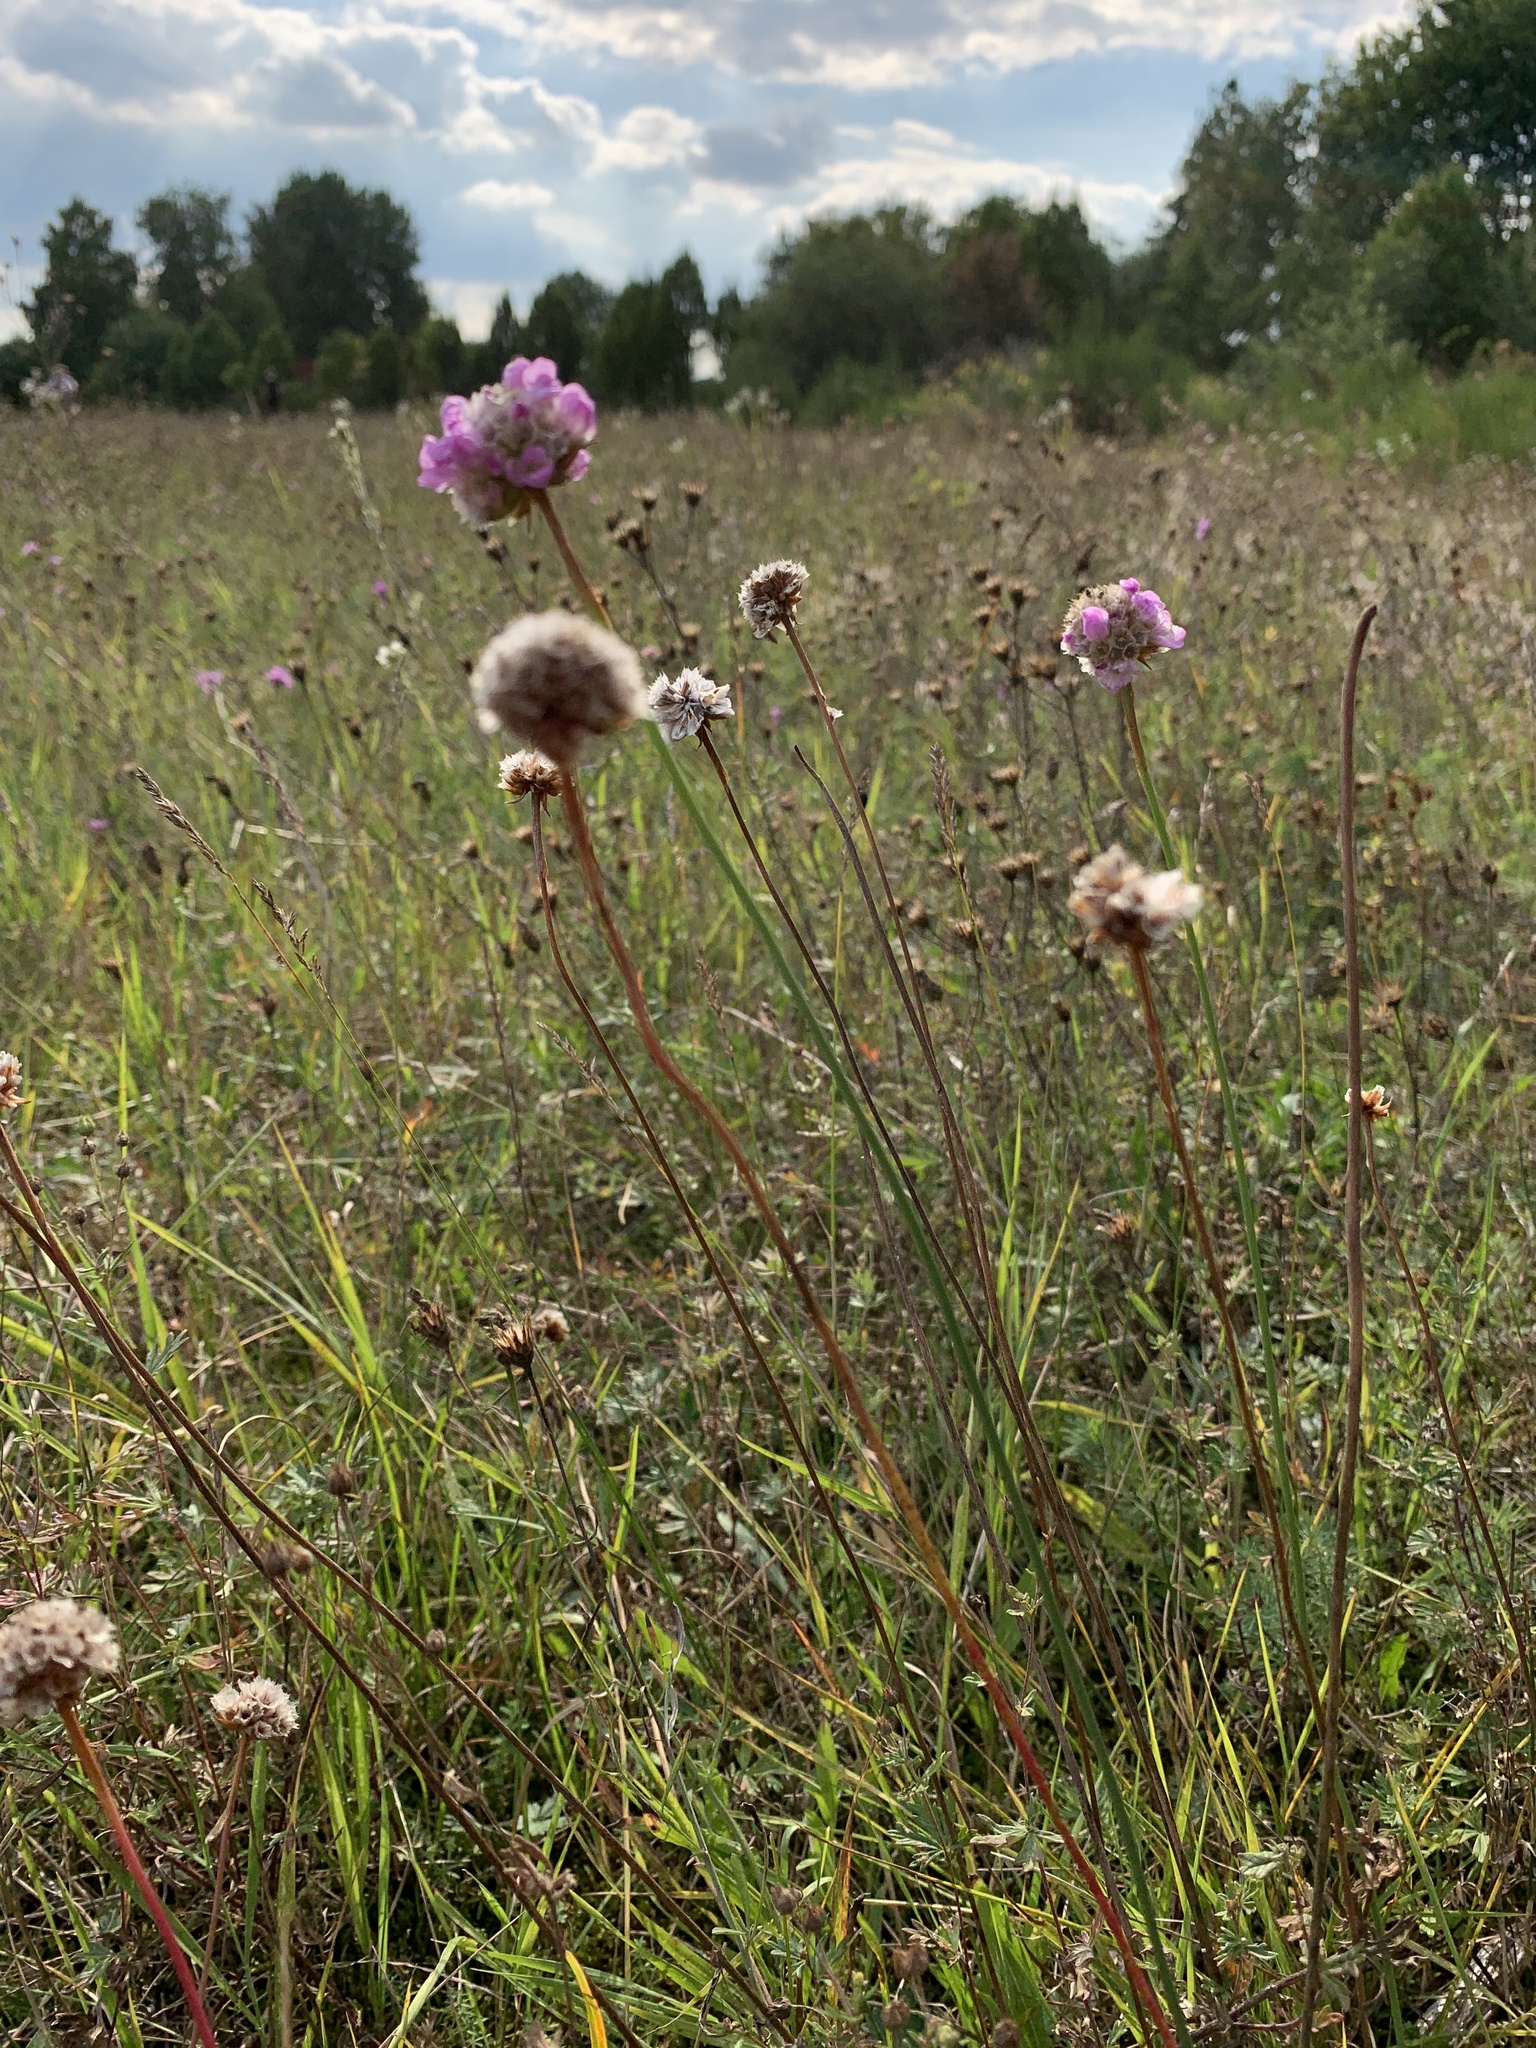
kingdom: Plantae
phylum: Tracheophyta
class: Magnoliopsida
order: Caryophyllales
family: Plumbaginaceae
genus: Armeria
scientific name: Armeria maritima
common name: Thrift
